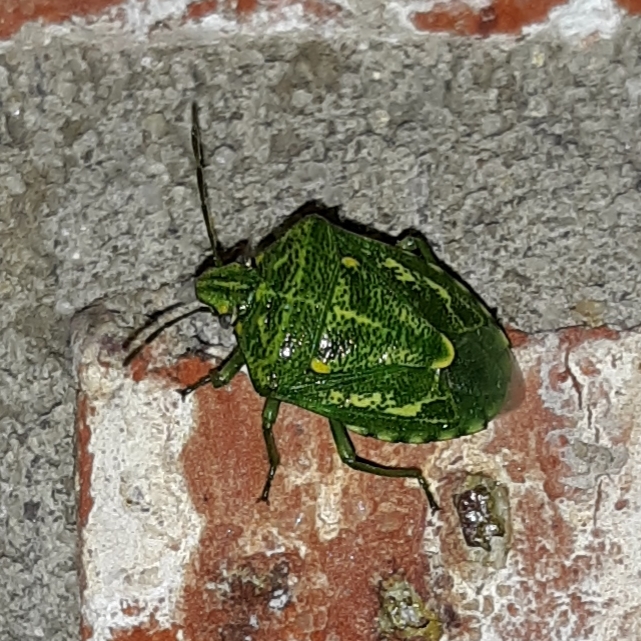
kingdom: Animalia
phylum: Arthropoda
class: Insecta
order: Hemiptera
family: Pentatomidae
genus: Banasa
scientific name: Banasa euchlora
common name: Cedar berry bug
